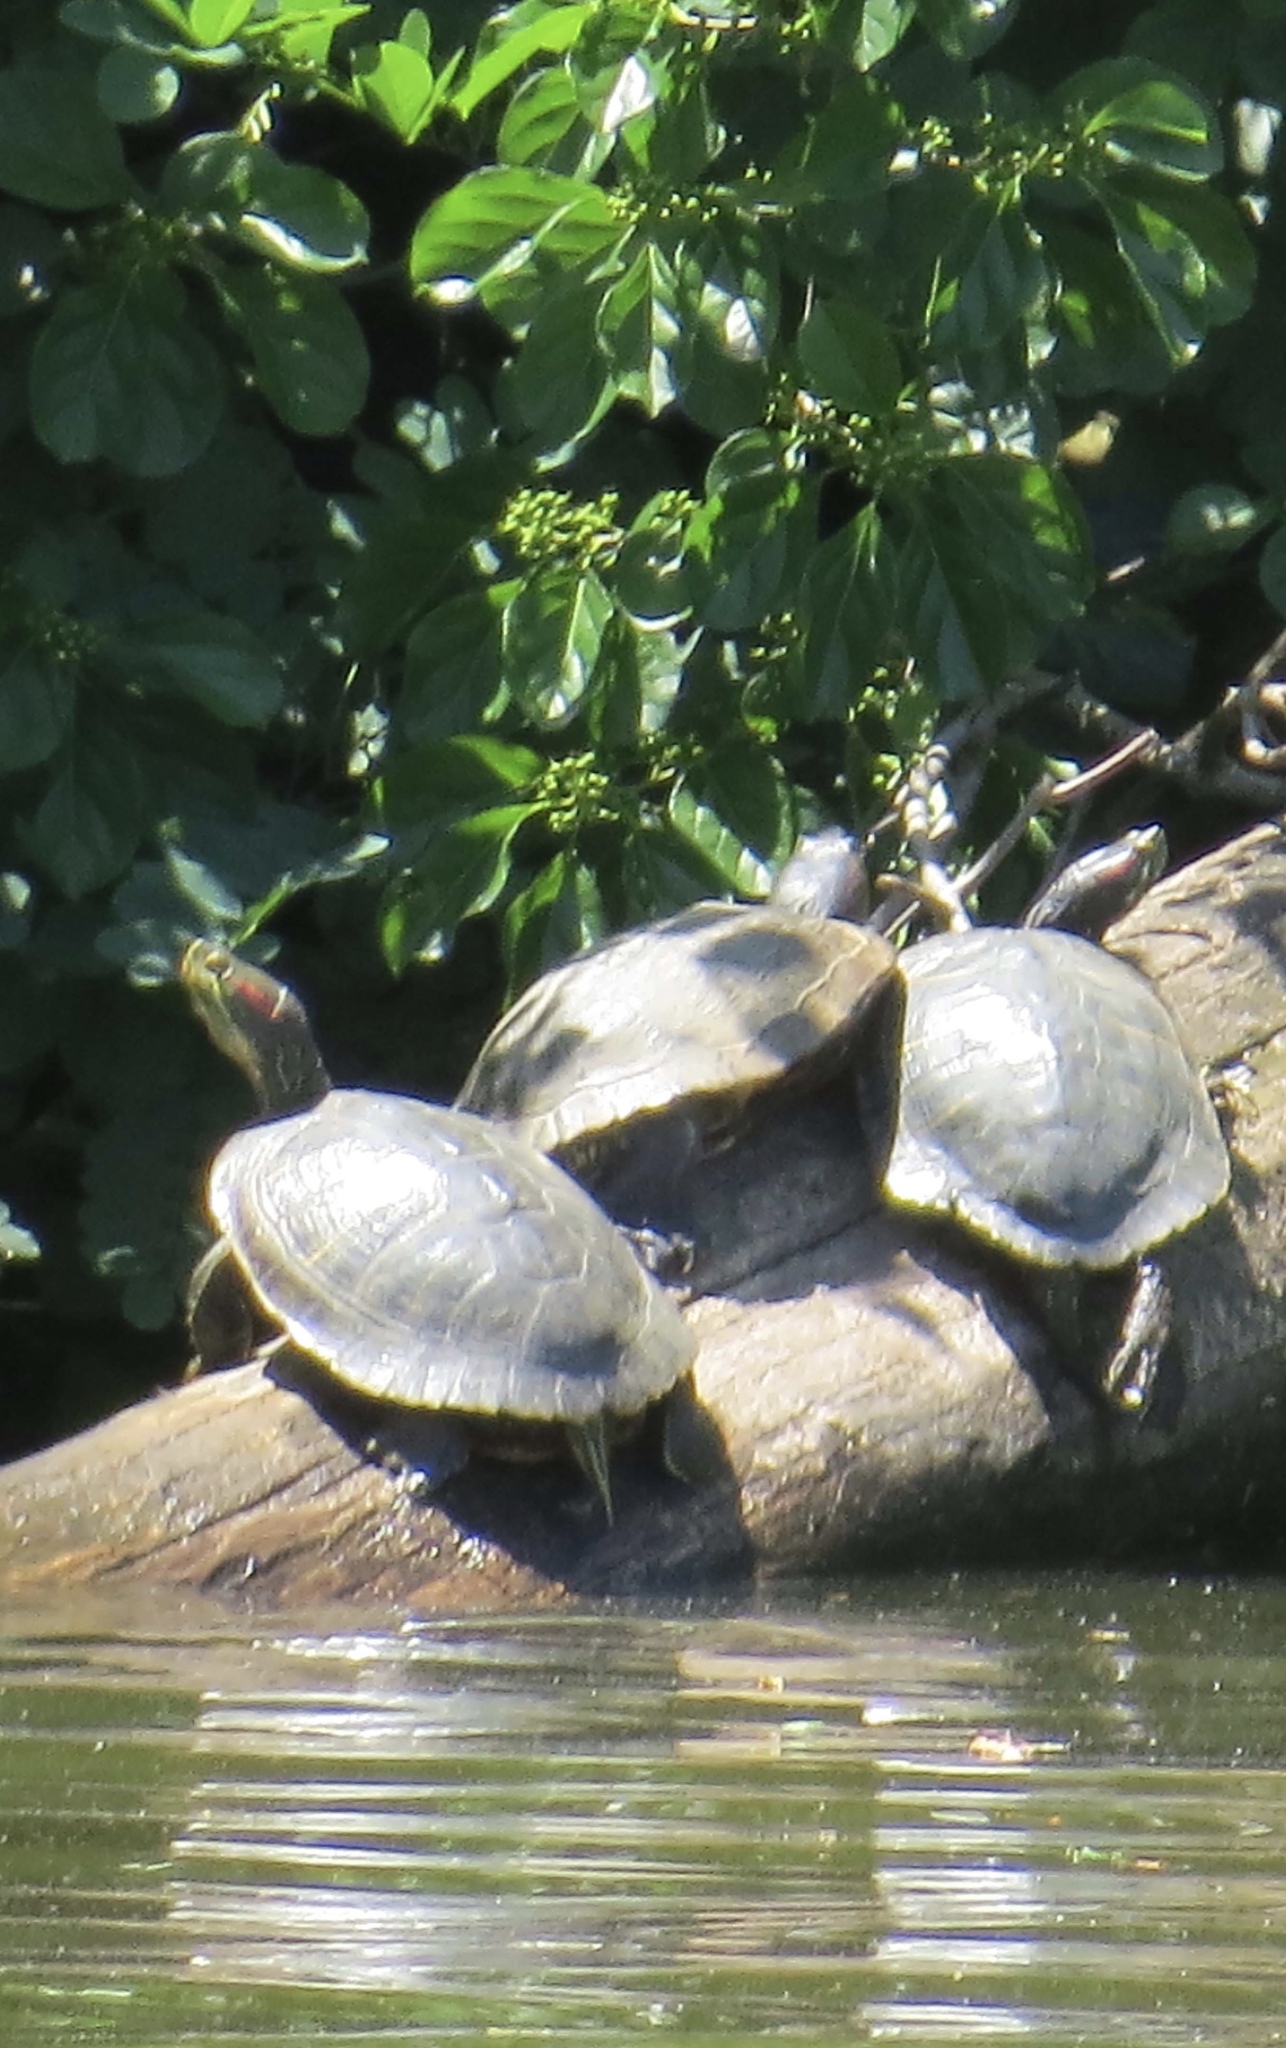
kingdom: Animalia
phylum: Chordata
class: Testudines
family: Emydidae
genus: Trachemys
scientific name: Trachemys scripta
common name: Slider
